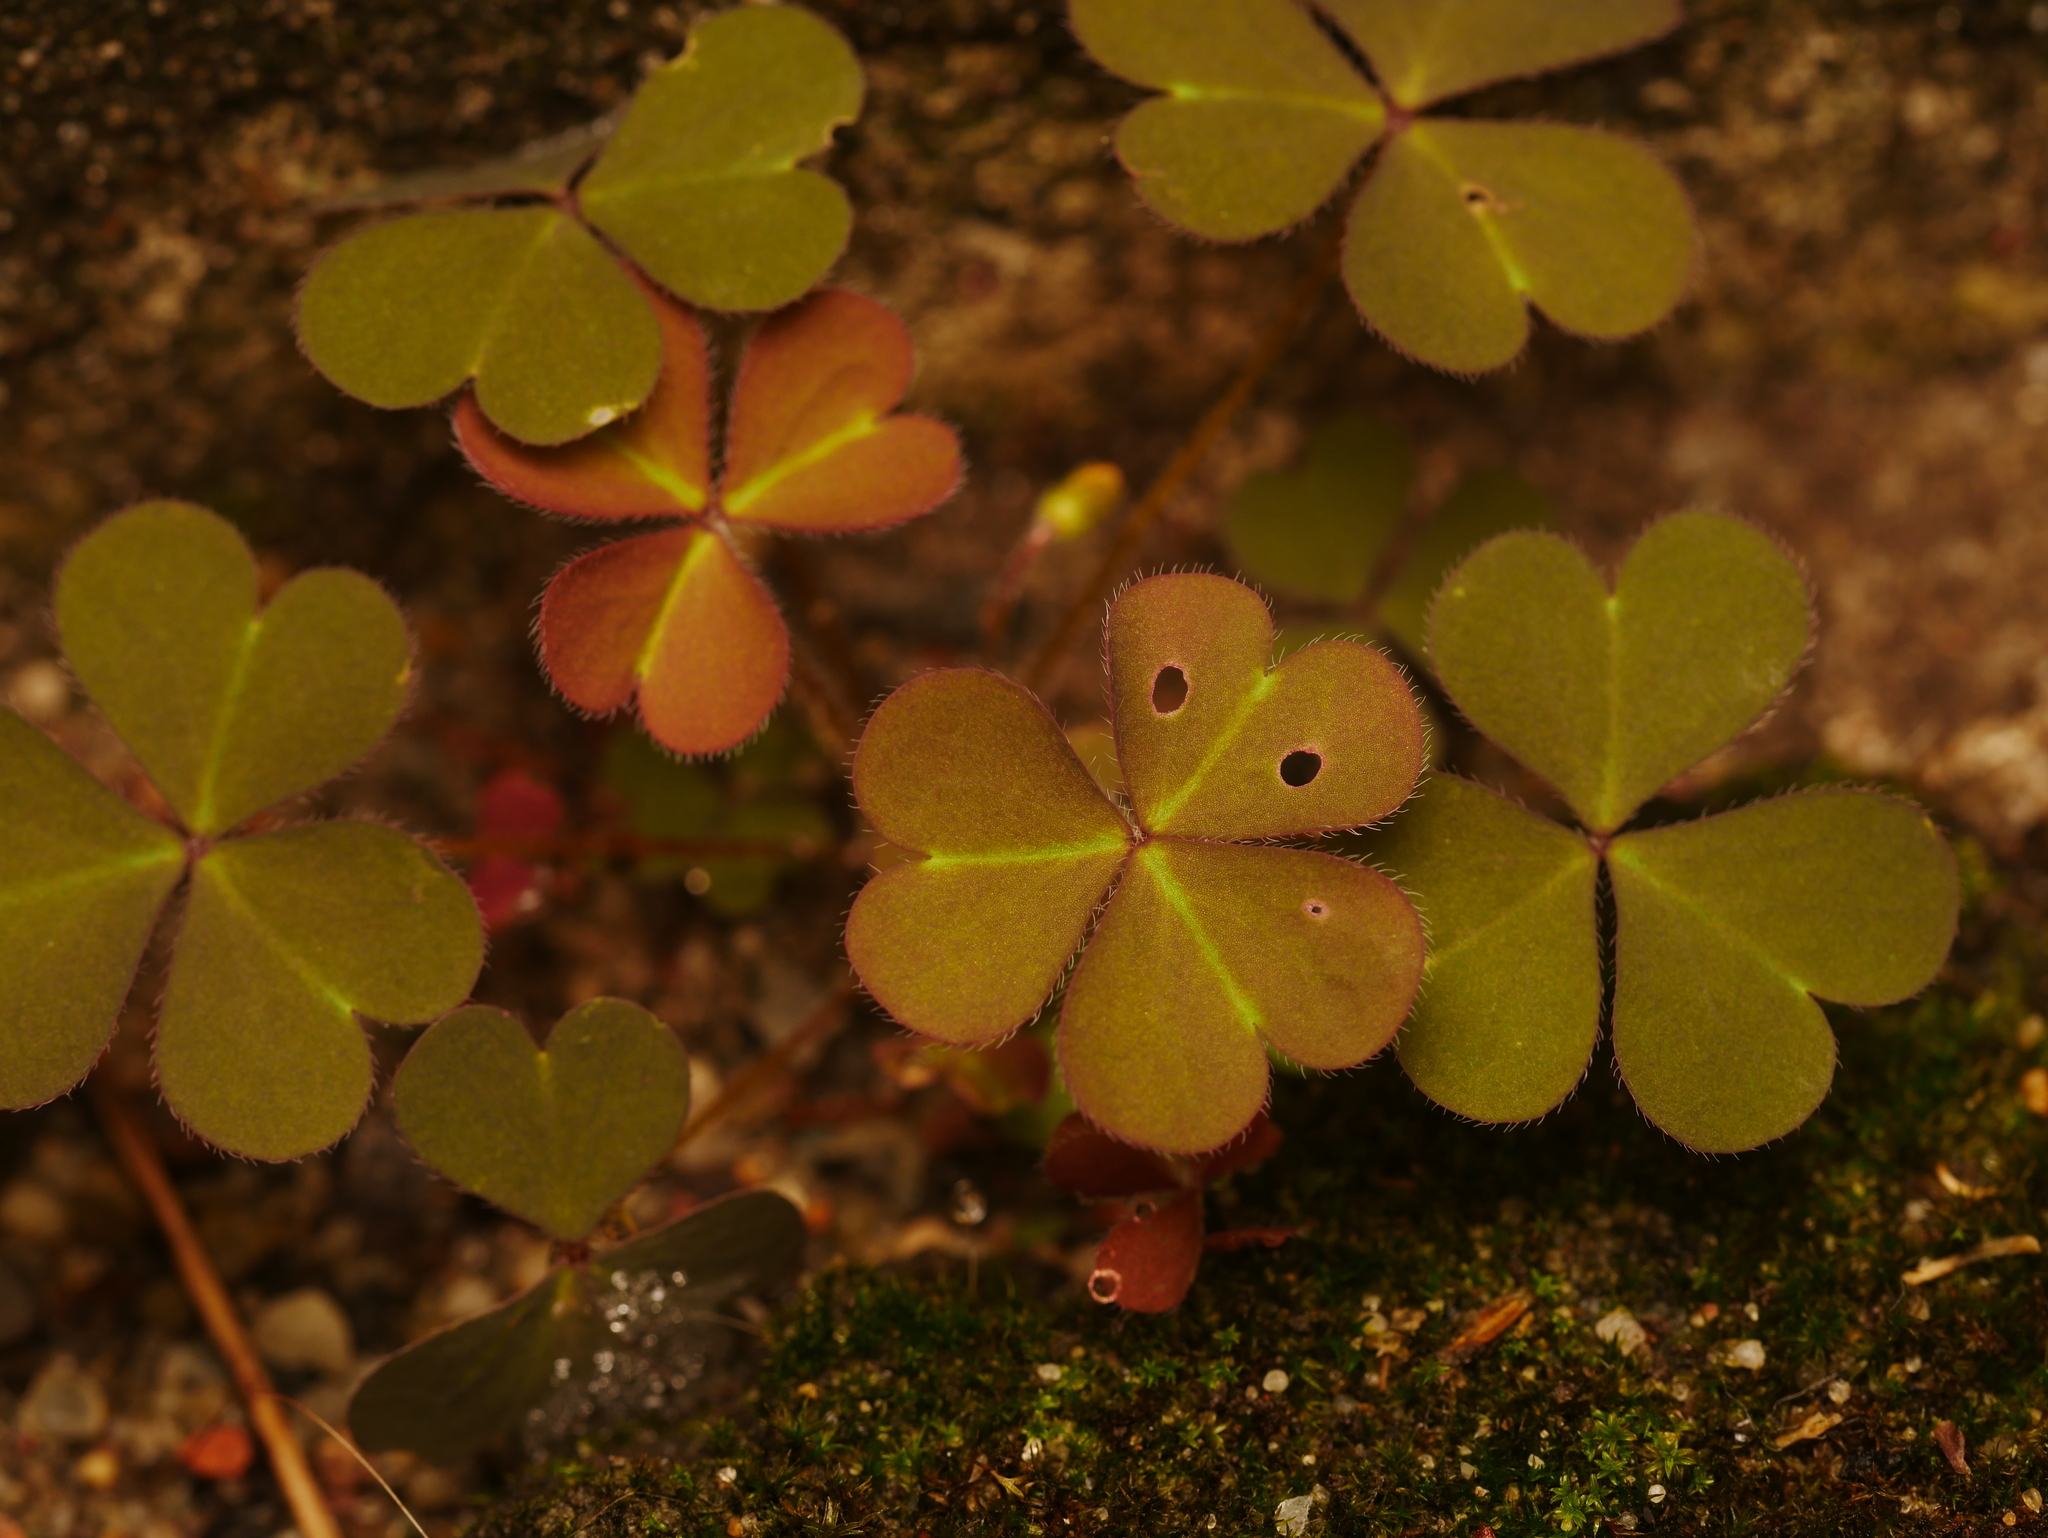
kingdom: Plantae
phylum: Tracheophyta
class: Magnoliopsida
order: Oxalidales
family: Oxalidaceae
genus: Oxalis
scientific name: Oxalis corniculata
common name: Procumbent yellow-sorrel
